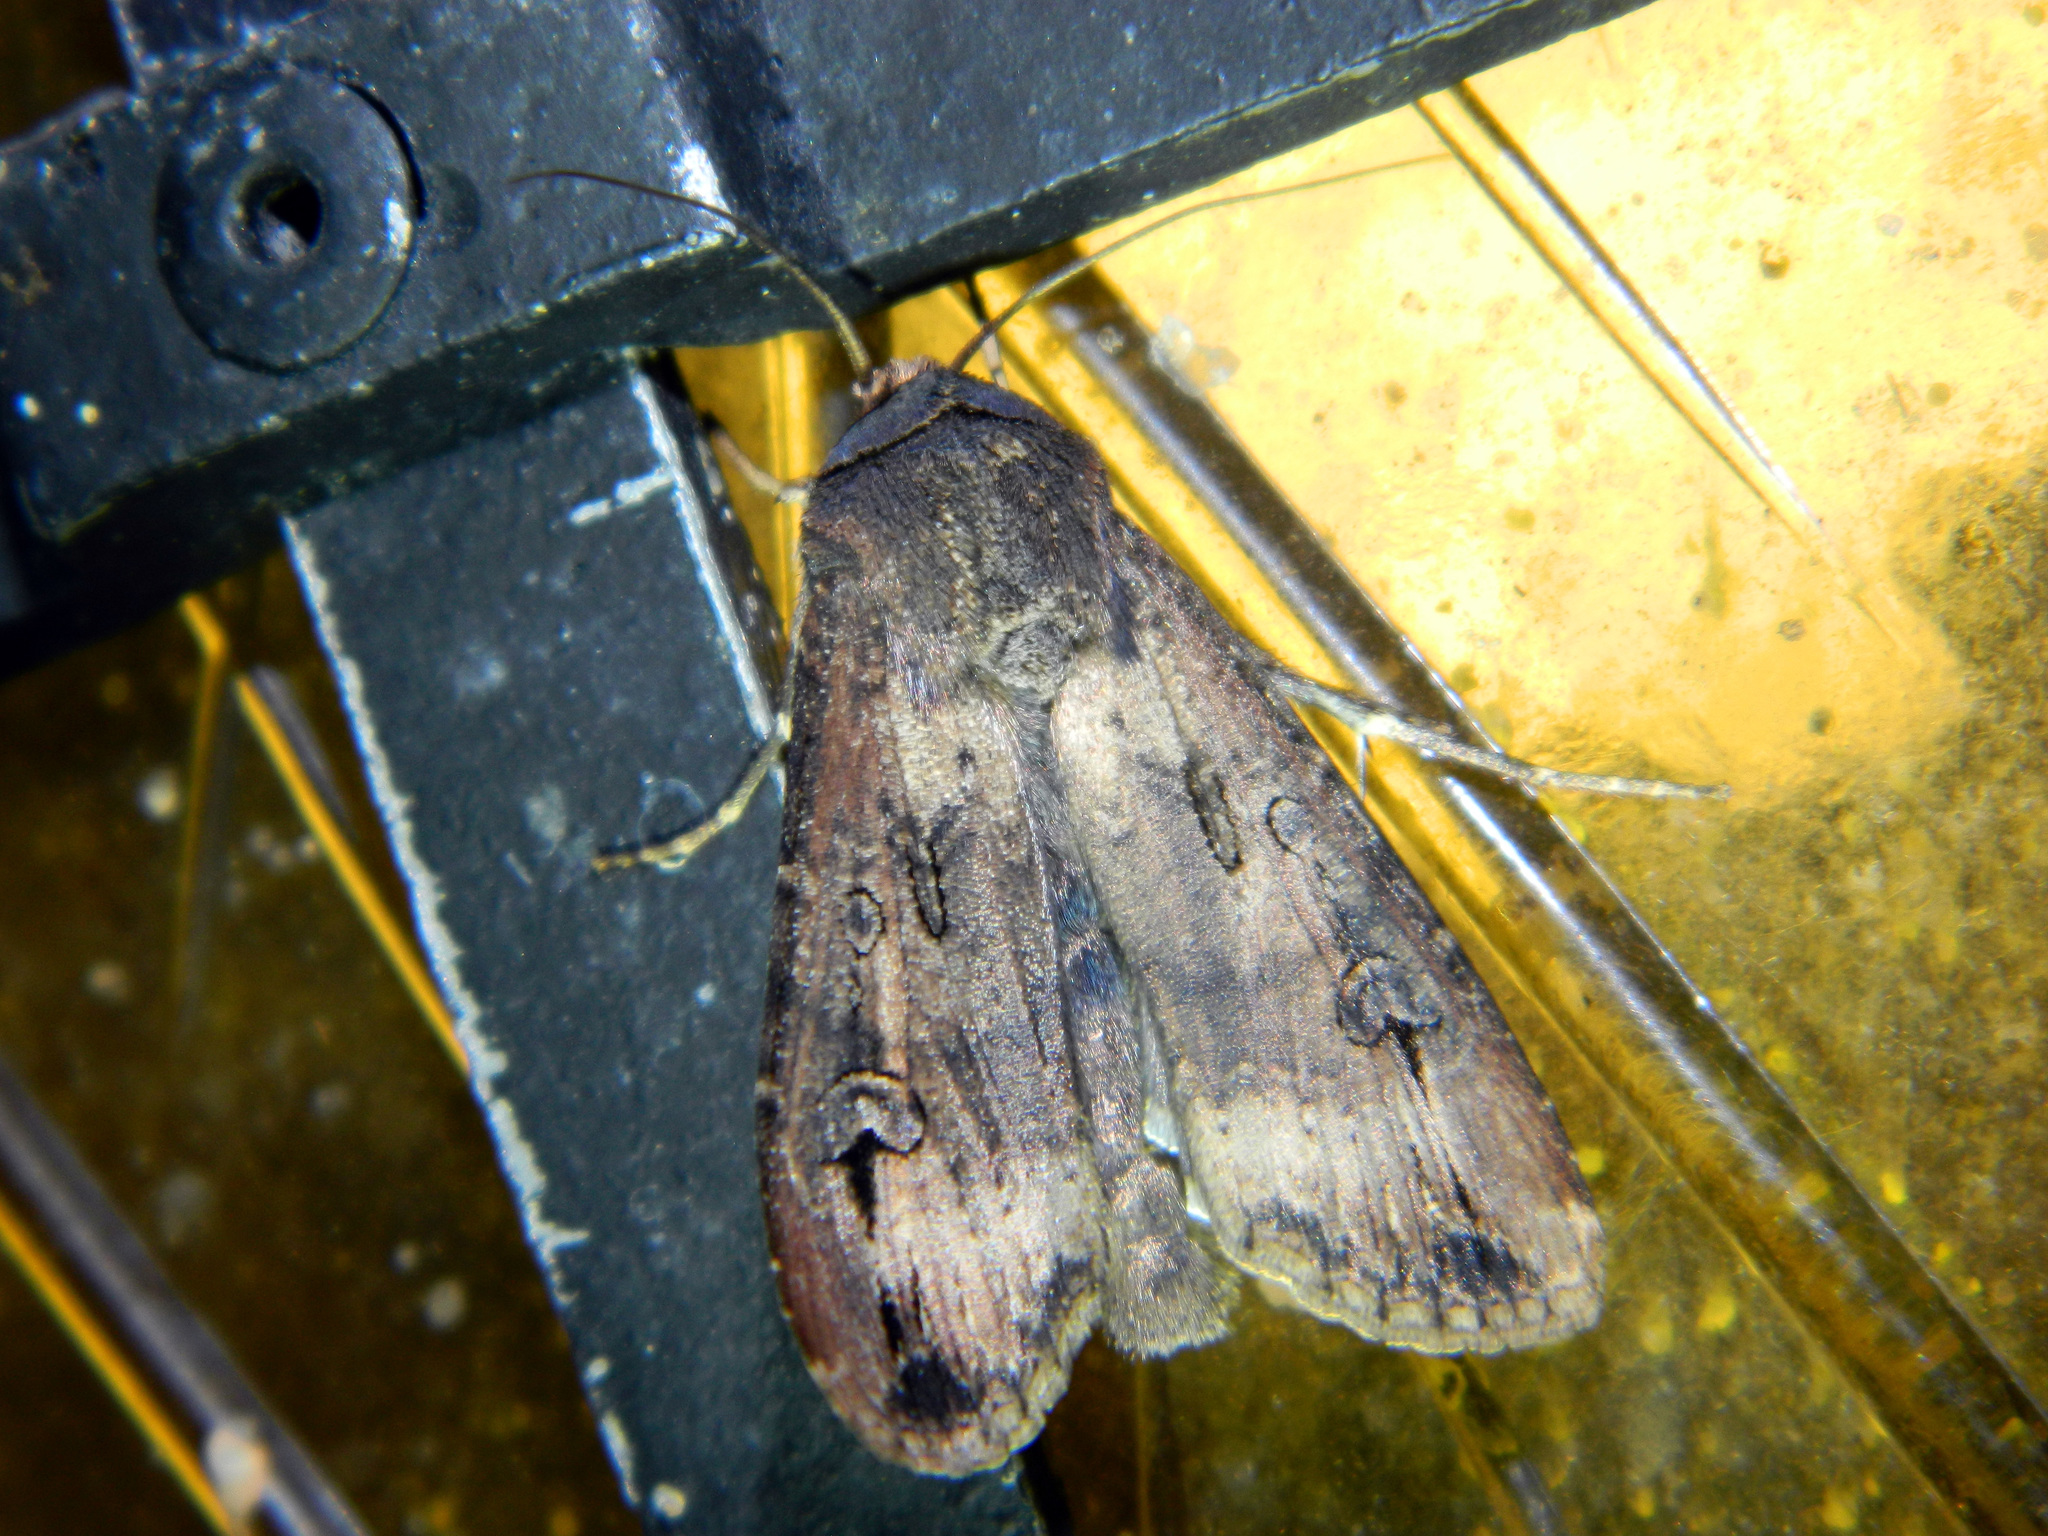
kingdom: Animalia
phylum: Arthropoda
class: Insecta
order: Lepidoptera
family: Noctuidae
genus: Agrotis
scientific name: Agrotis ipsilon
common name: Dark sword-grass
